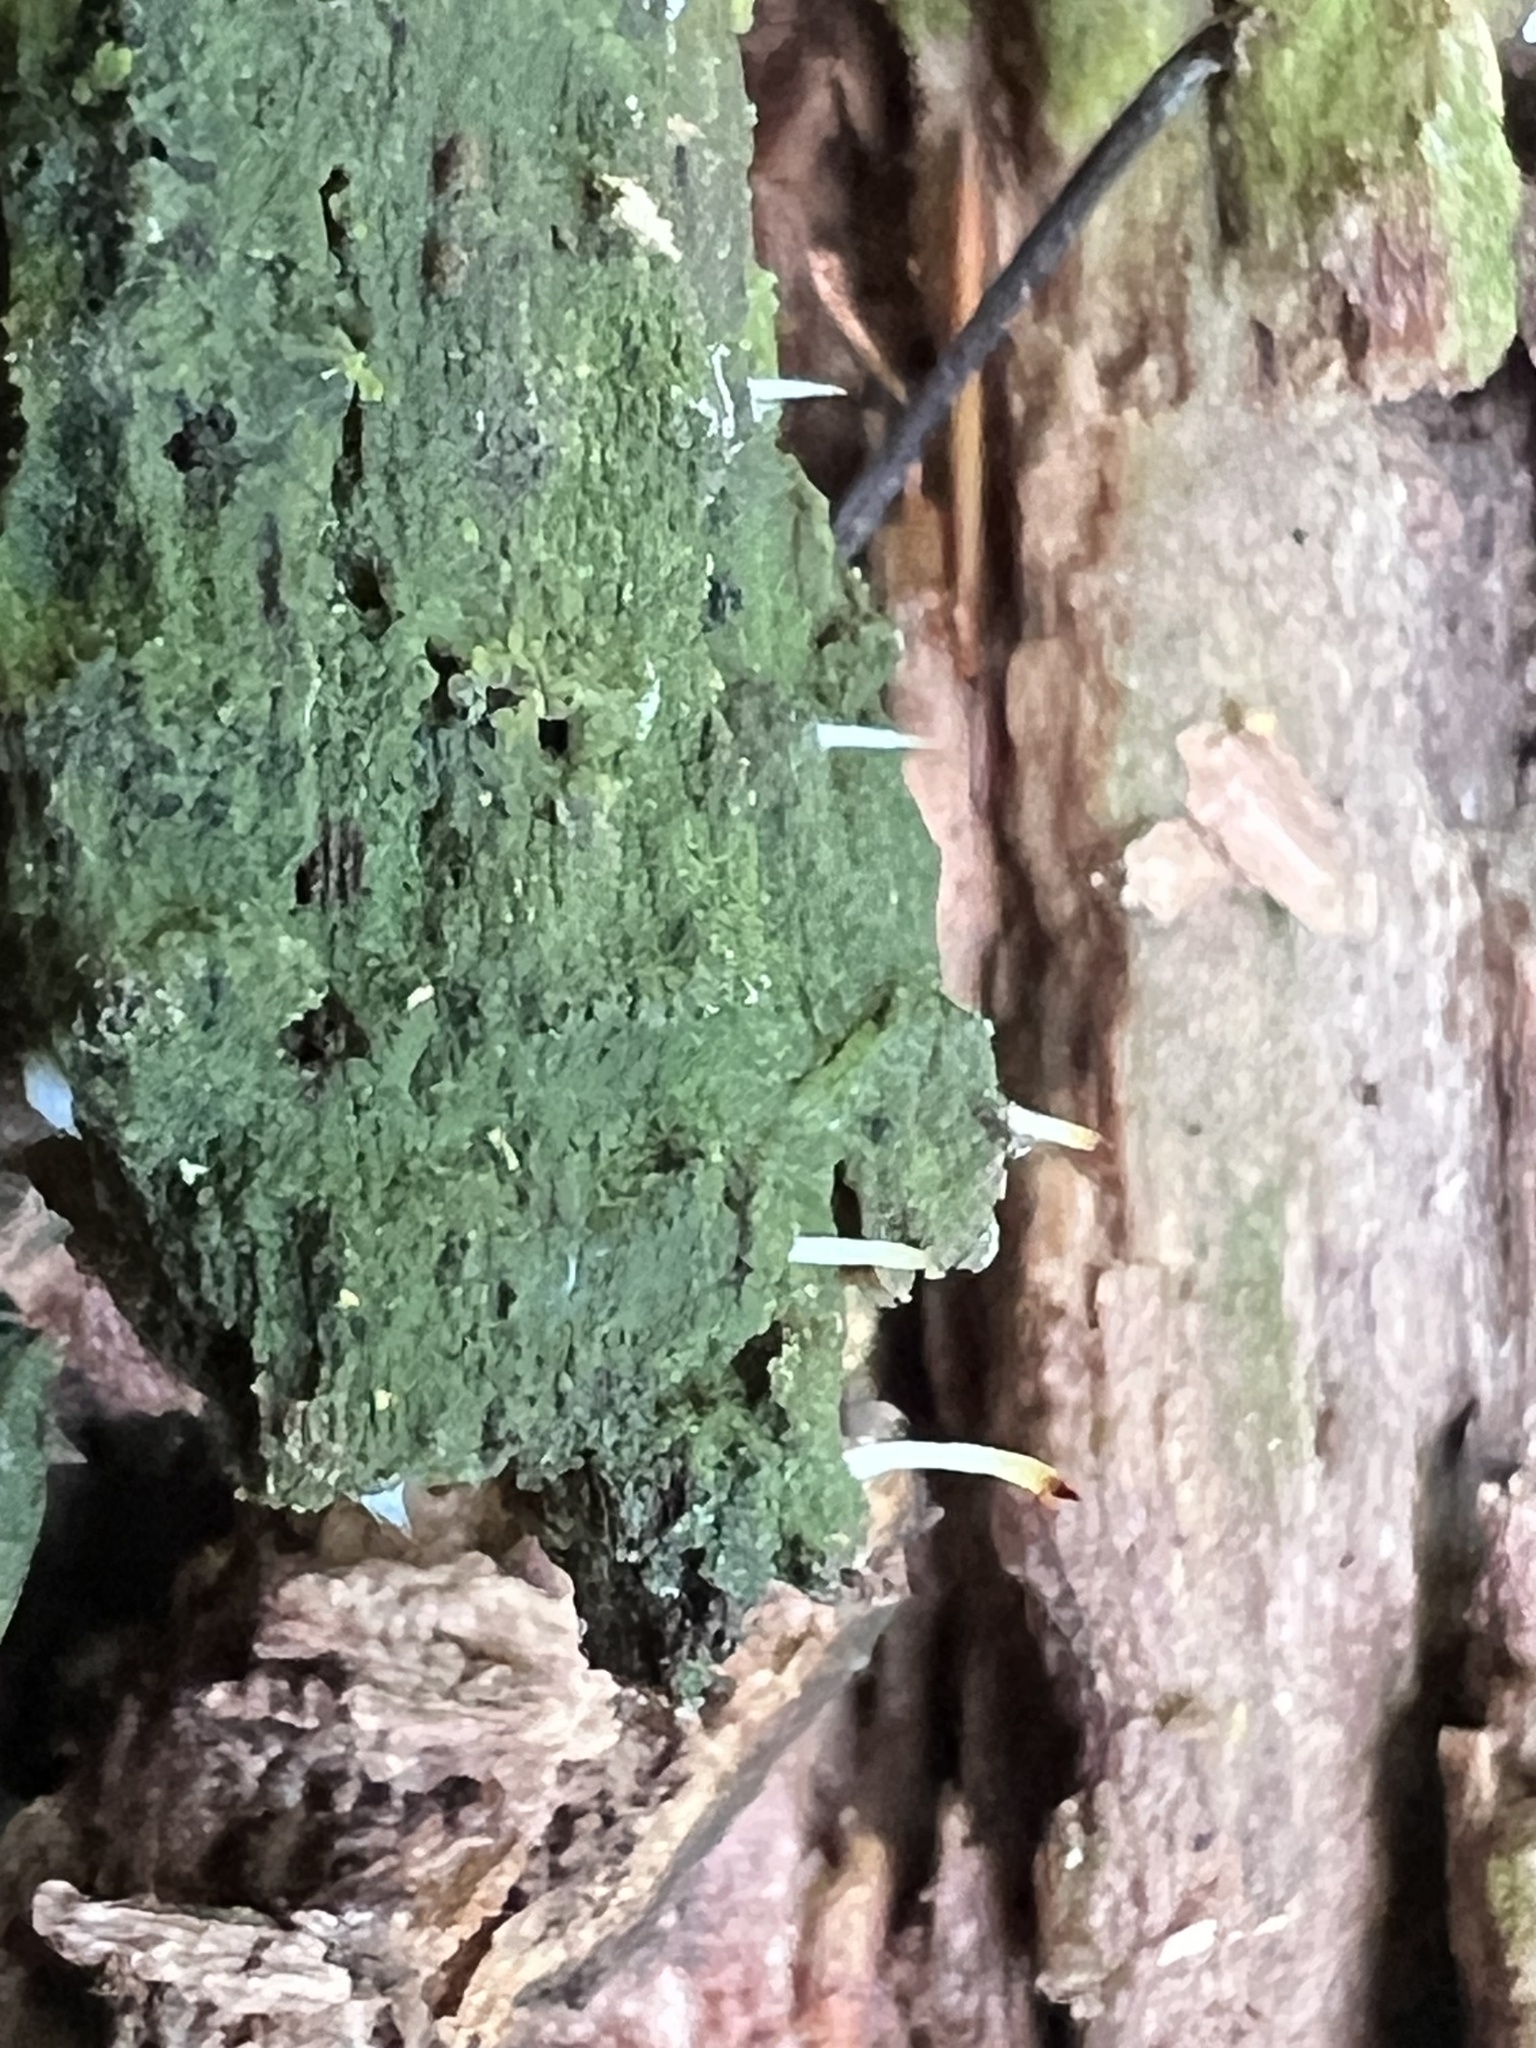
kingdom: Fungi
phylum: Basidiomycota
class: Agaricomycetes
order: Cantharellales
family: Hydnaceae
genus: Multiclavula
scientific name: Multiclavula mucida
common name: White green-algae coral
